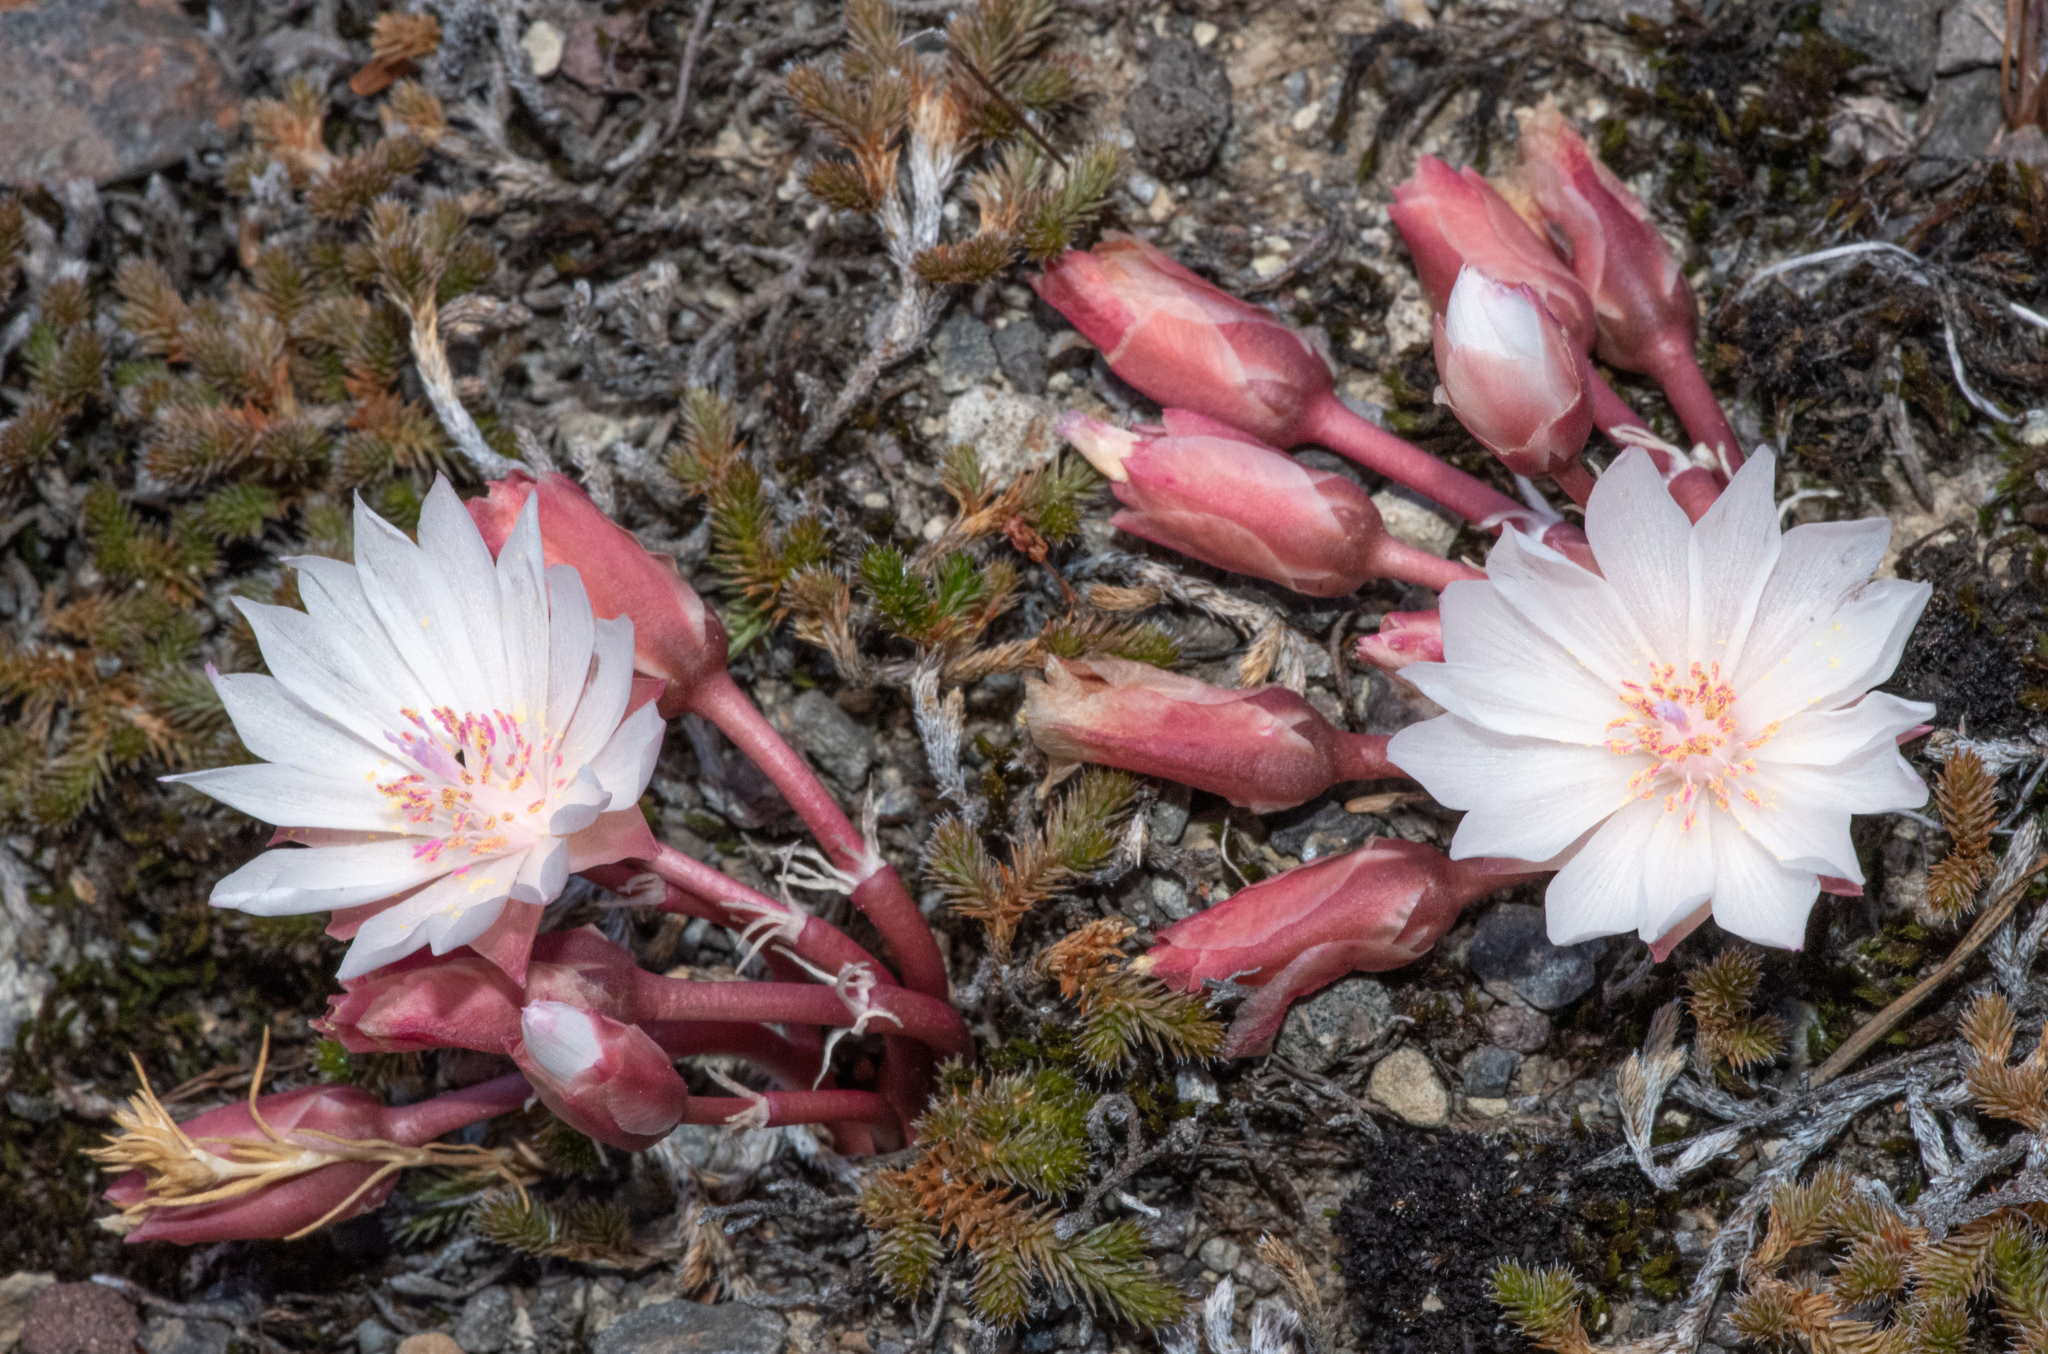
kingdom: Plantae
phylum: Tracheophyta
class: Magnoliopsida
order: Caryophyllales
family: Montiaceae
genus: Lewisia
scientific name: Lewisia rediviva
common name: Bitter-root
